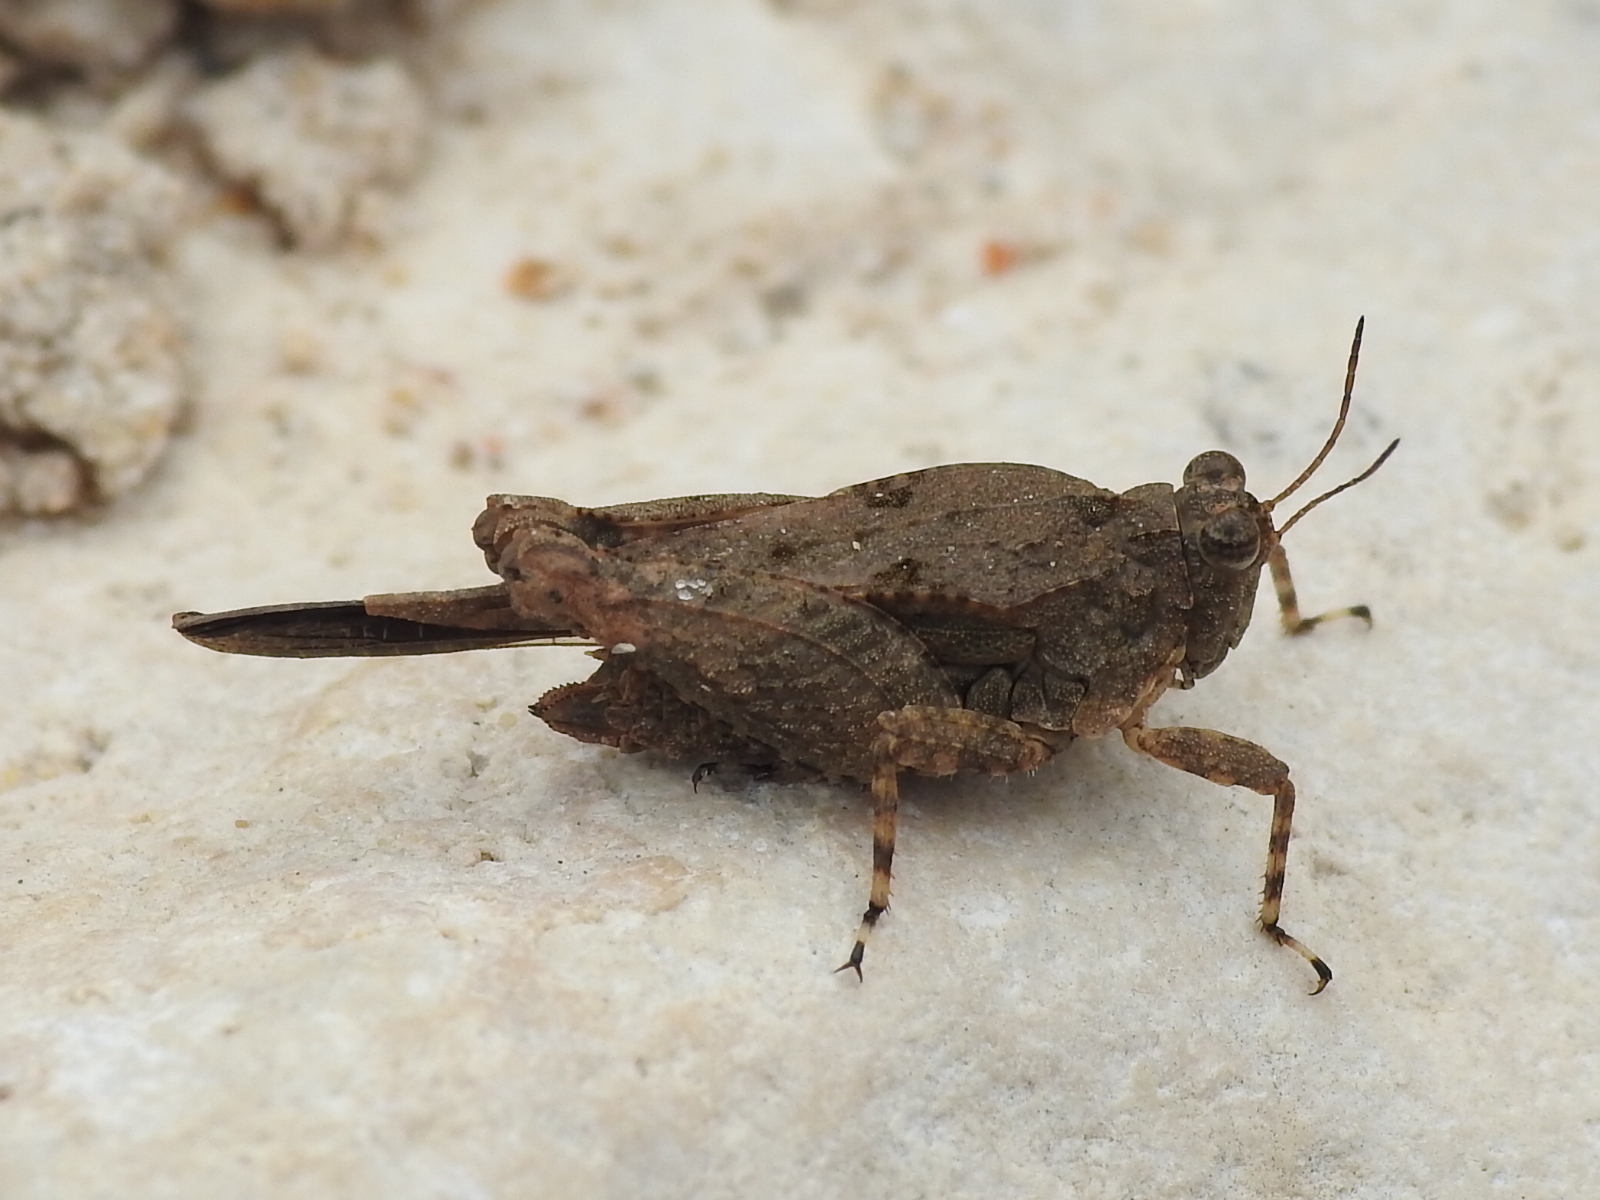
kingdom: Animalia
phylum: Arthropoda
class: Insecta
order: Orthoptera
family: Tetrigidae
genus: Paratettix
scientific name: Paratettix mexicanus
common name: Mexican pygmy grasshopper
